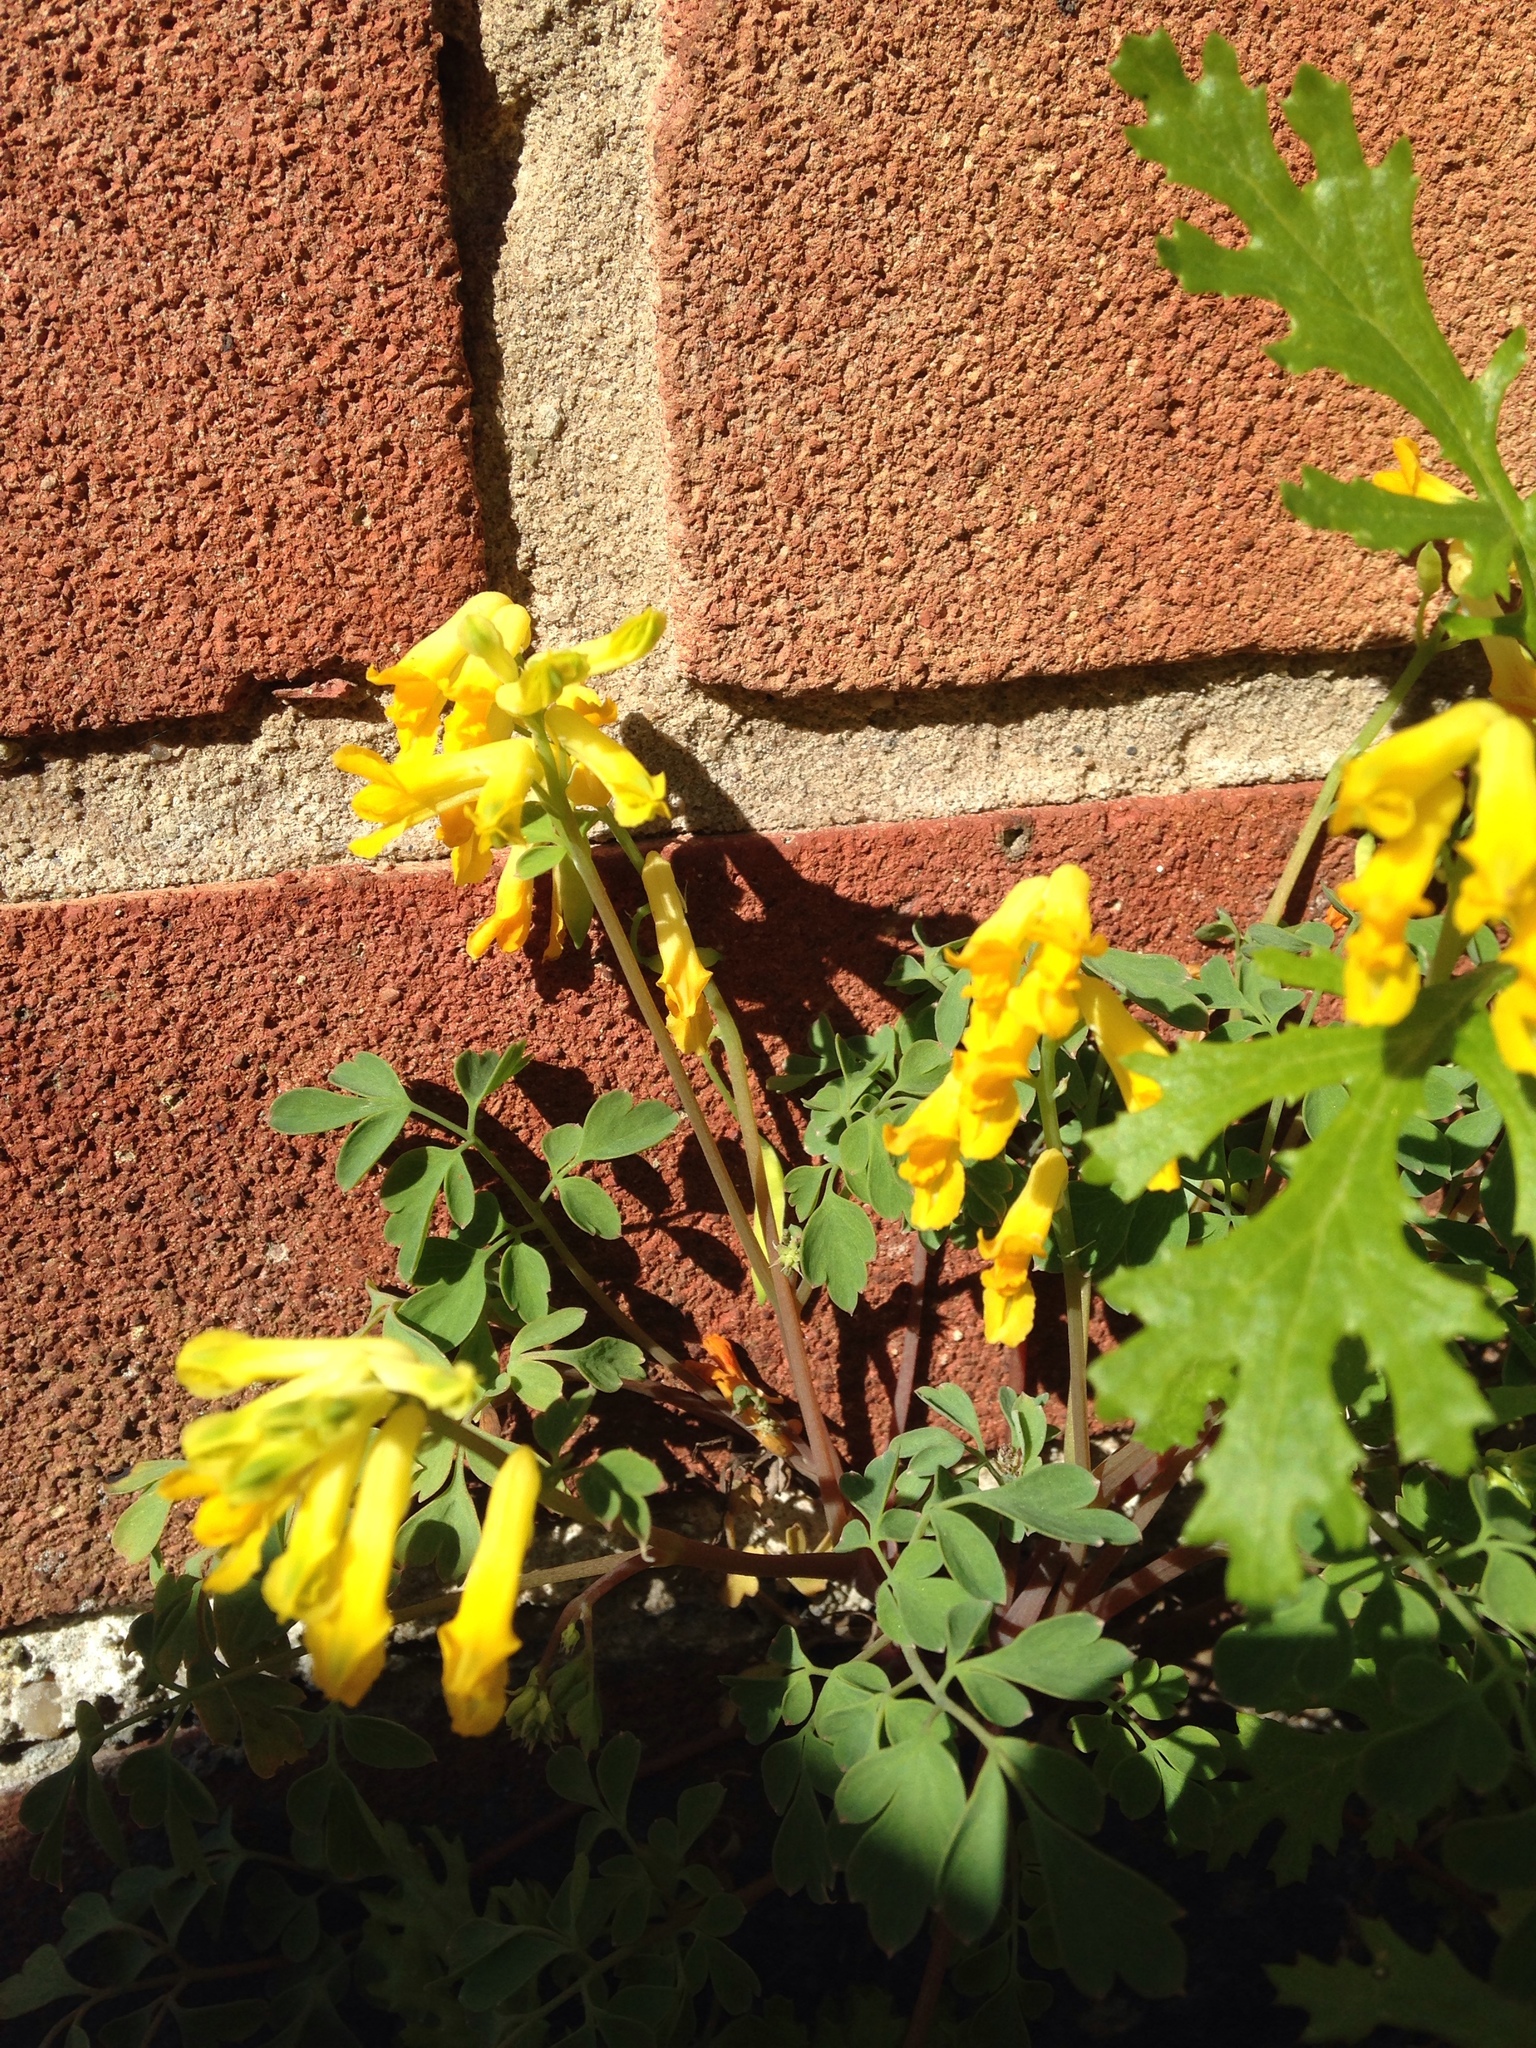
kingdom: Plantae
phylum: Tracheophyta
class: Magnoliopsida
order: Ranunculales
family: Papaveraceae
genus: Pseudofumaria
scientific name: Pseudofumaria lutea
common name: Yellow corydalis
